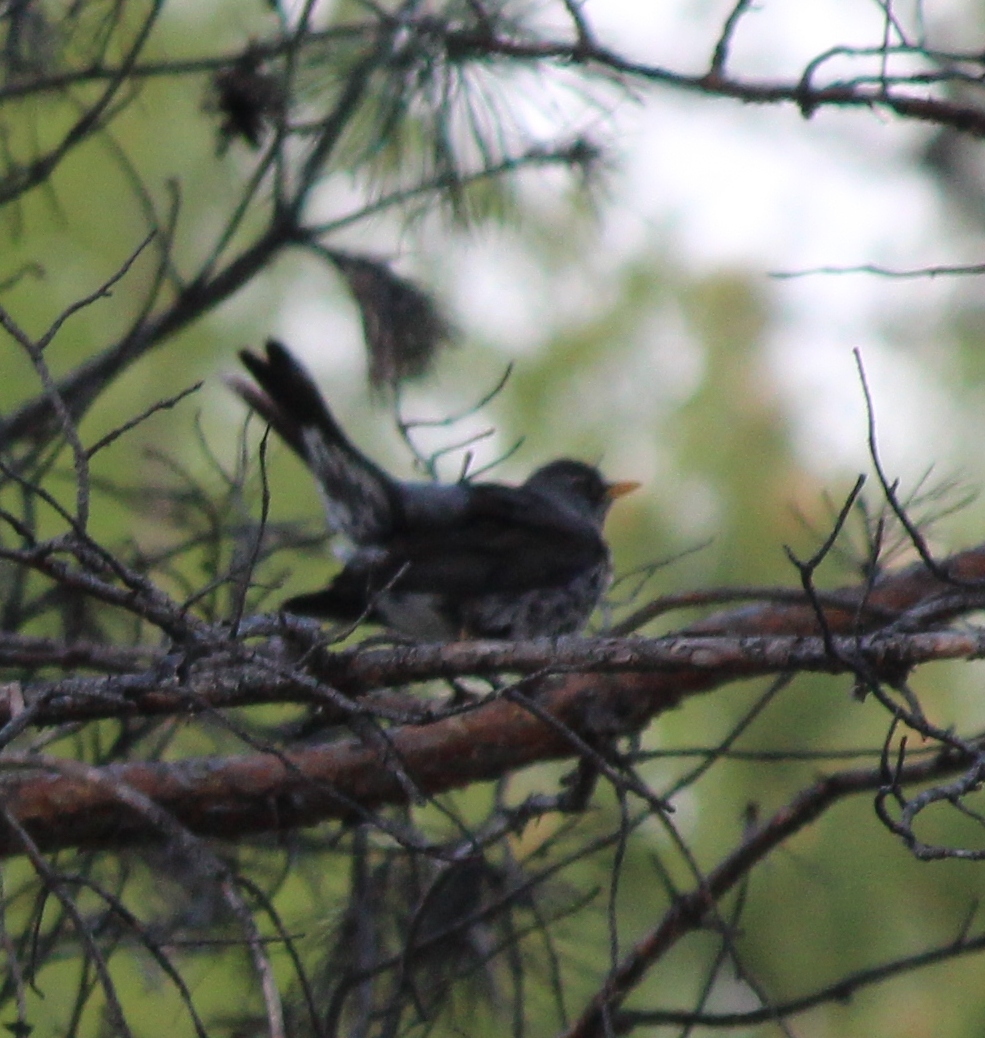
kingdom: Animalia
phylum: Chordata
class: Aves
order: Passeriformes
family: Turdidae
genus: Turdus
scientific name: Turdus pilaris
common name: Fieldfare
